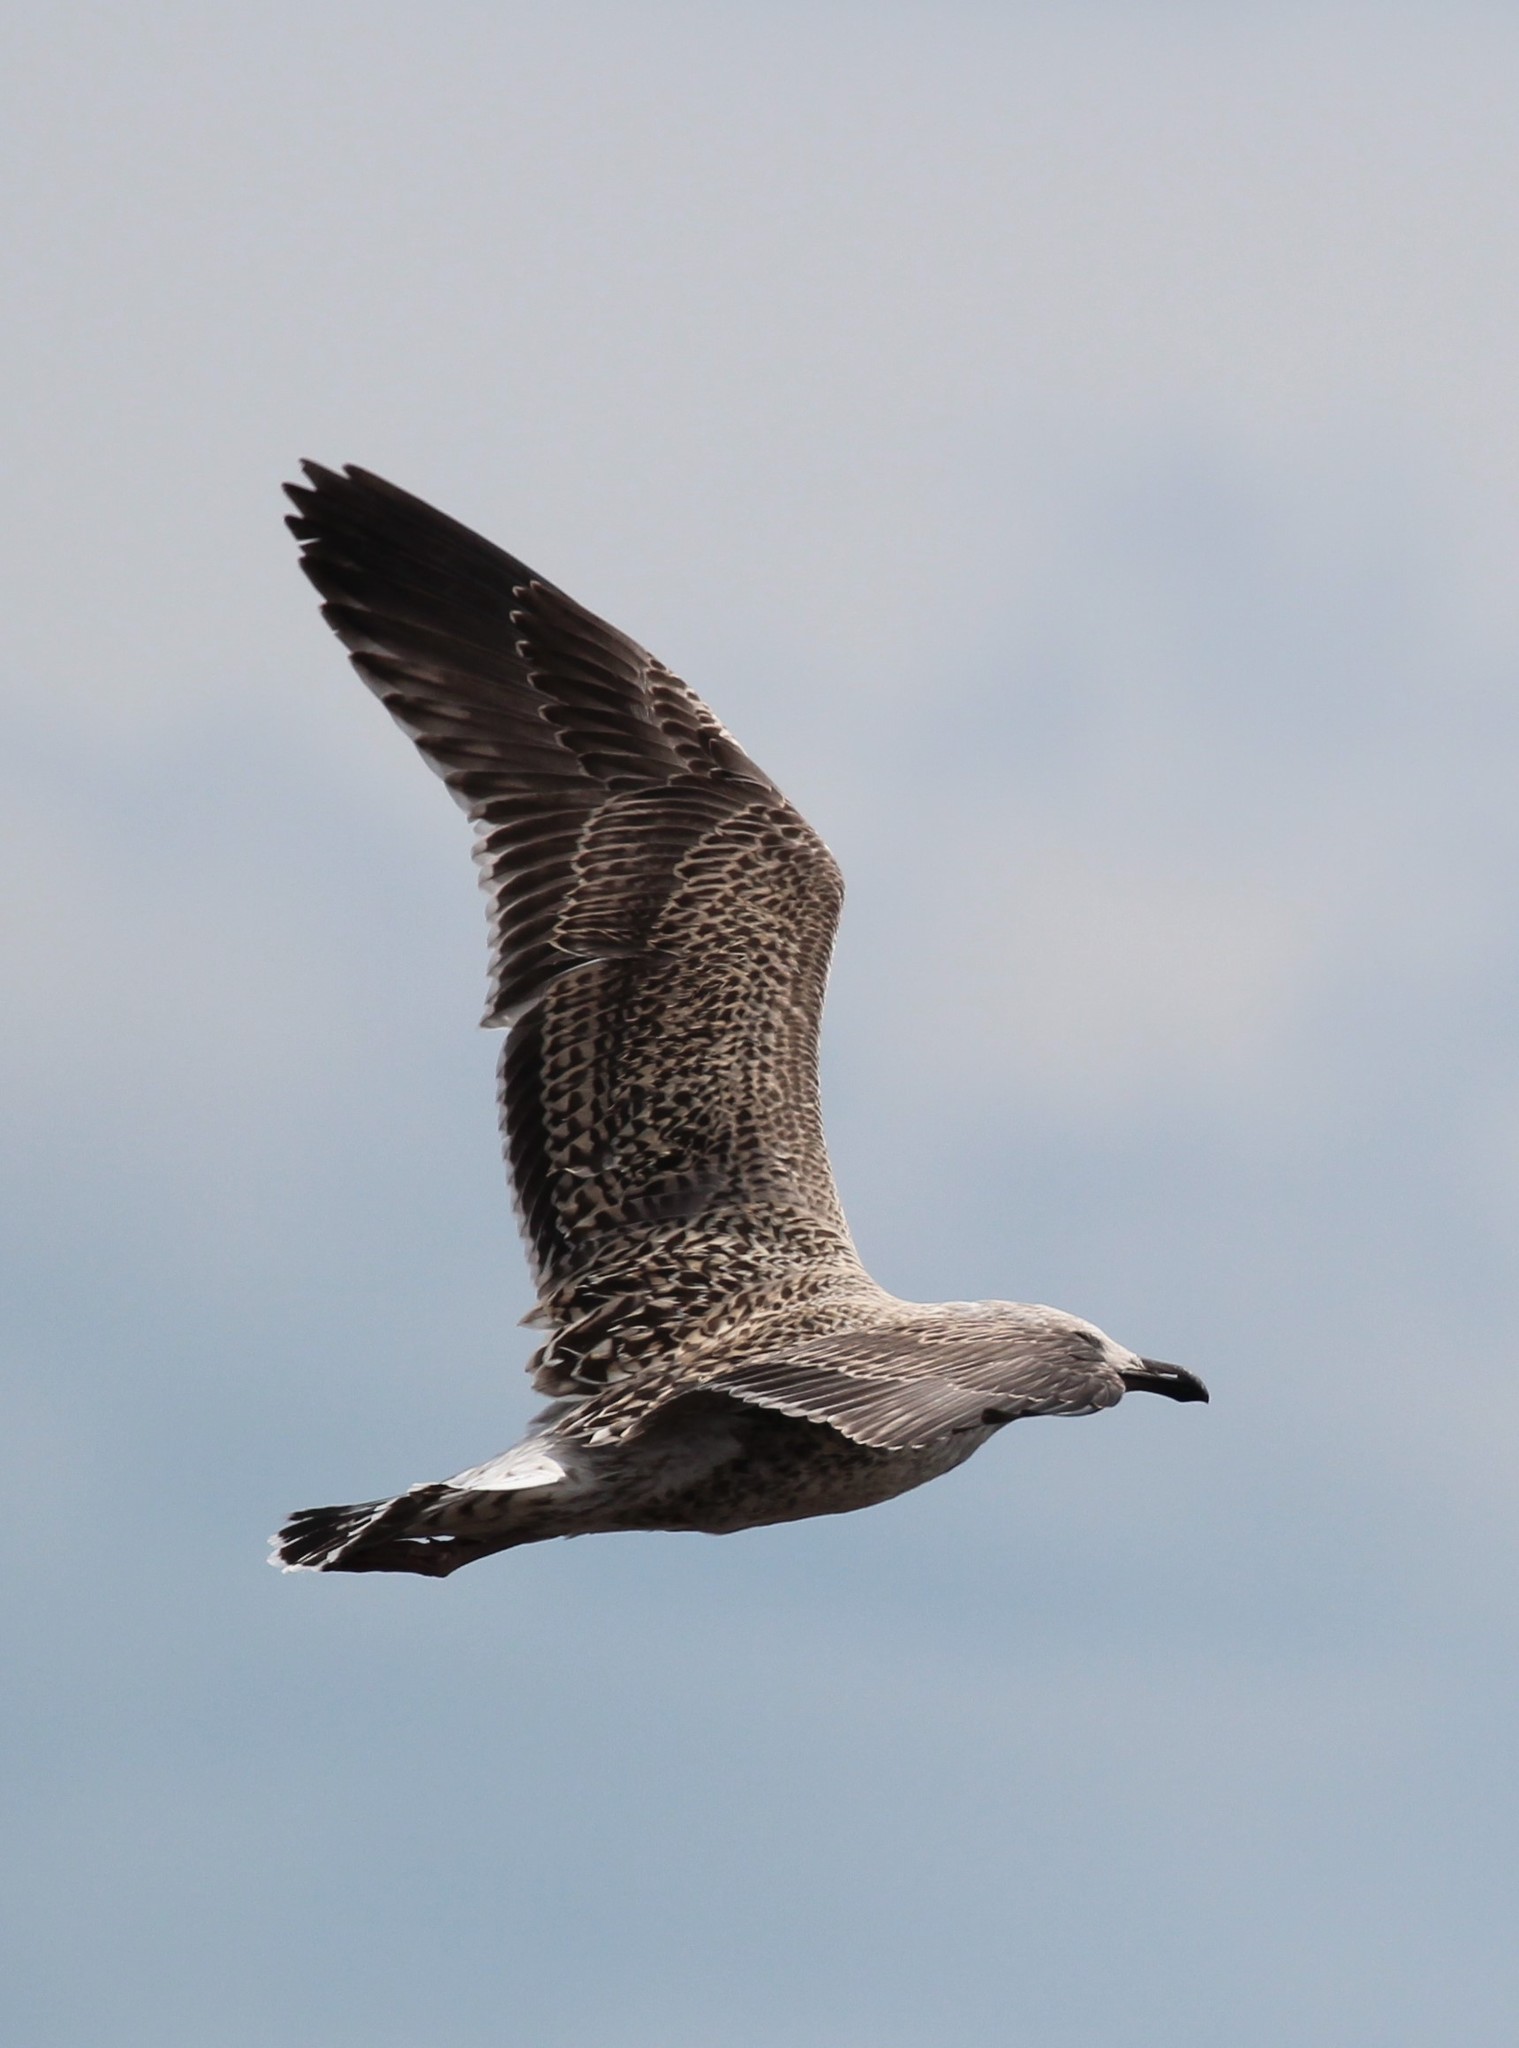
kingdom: Animalia
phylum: Chordata
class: Aves
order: Charadriiformes
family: Laridae
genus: Larus
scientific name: Larus marinus
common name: Great black-backed gull
